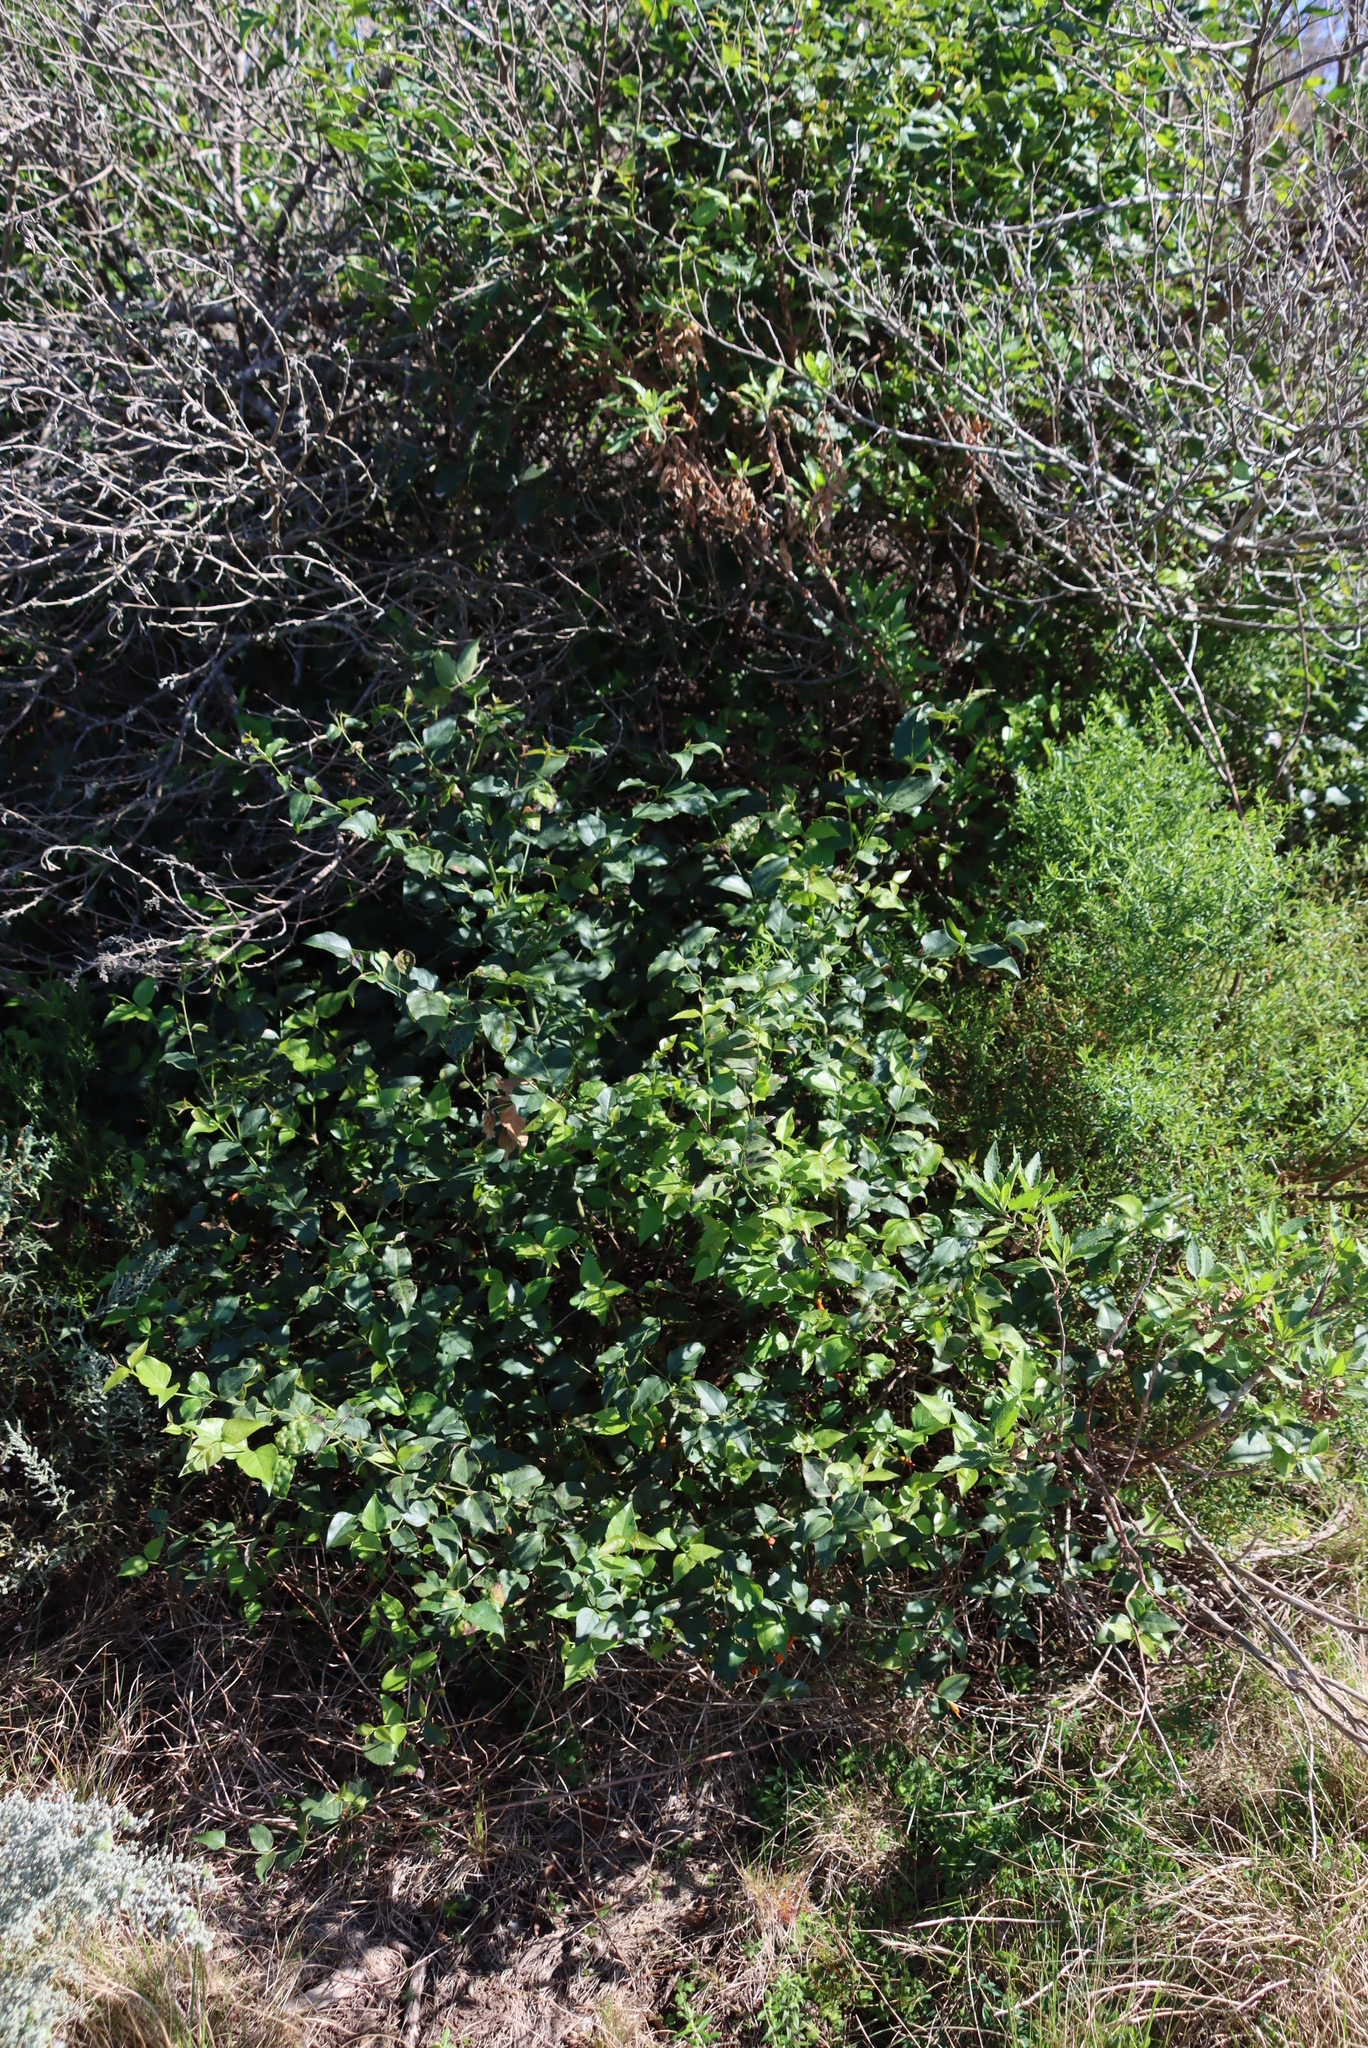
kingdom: Plantae
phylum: Tracheophyta
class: Magnoliopsida
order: Lamiales
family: Stilbaceae
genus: Halleria
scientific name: Halleria lucida
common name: Tree fuschia
